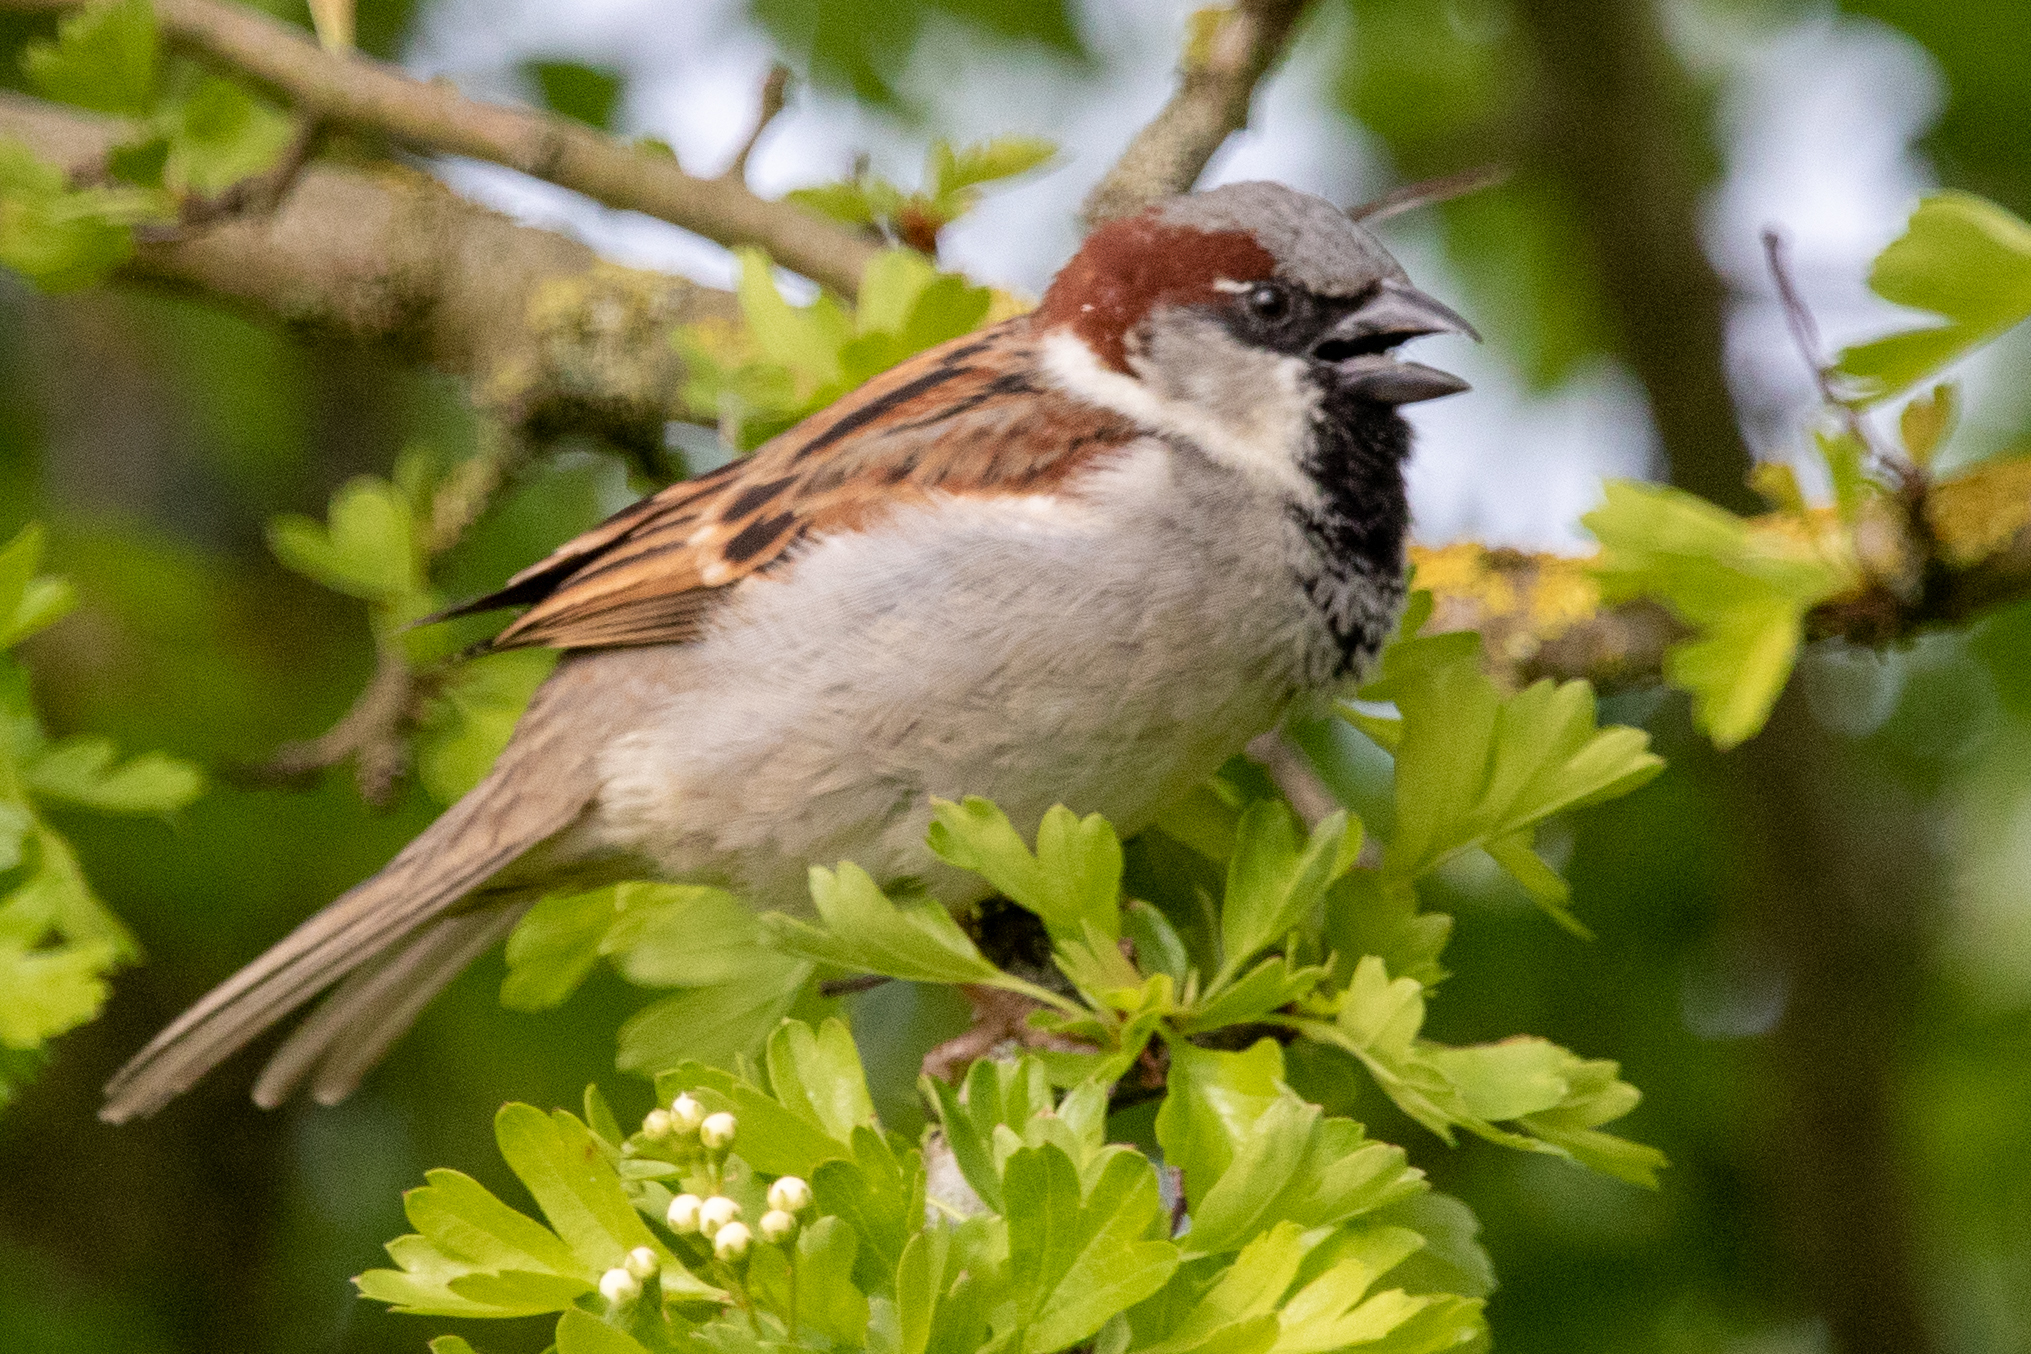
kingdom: Animalia
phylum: Chordata
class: Aves
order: Passeriformes
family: Passeridae
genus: Passer
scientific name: Passer domesticus
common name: House sparrow
